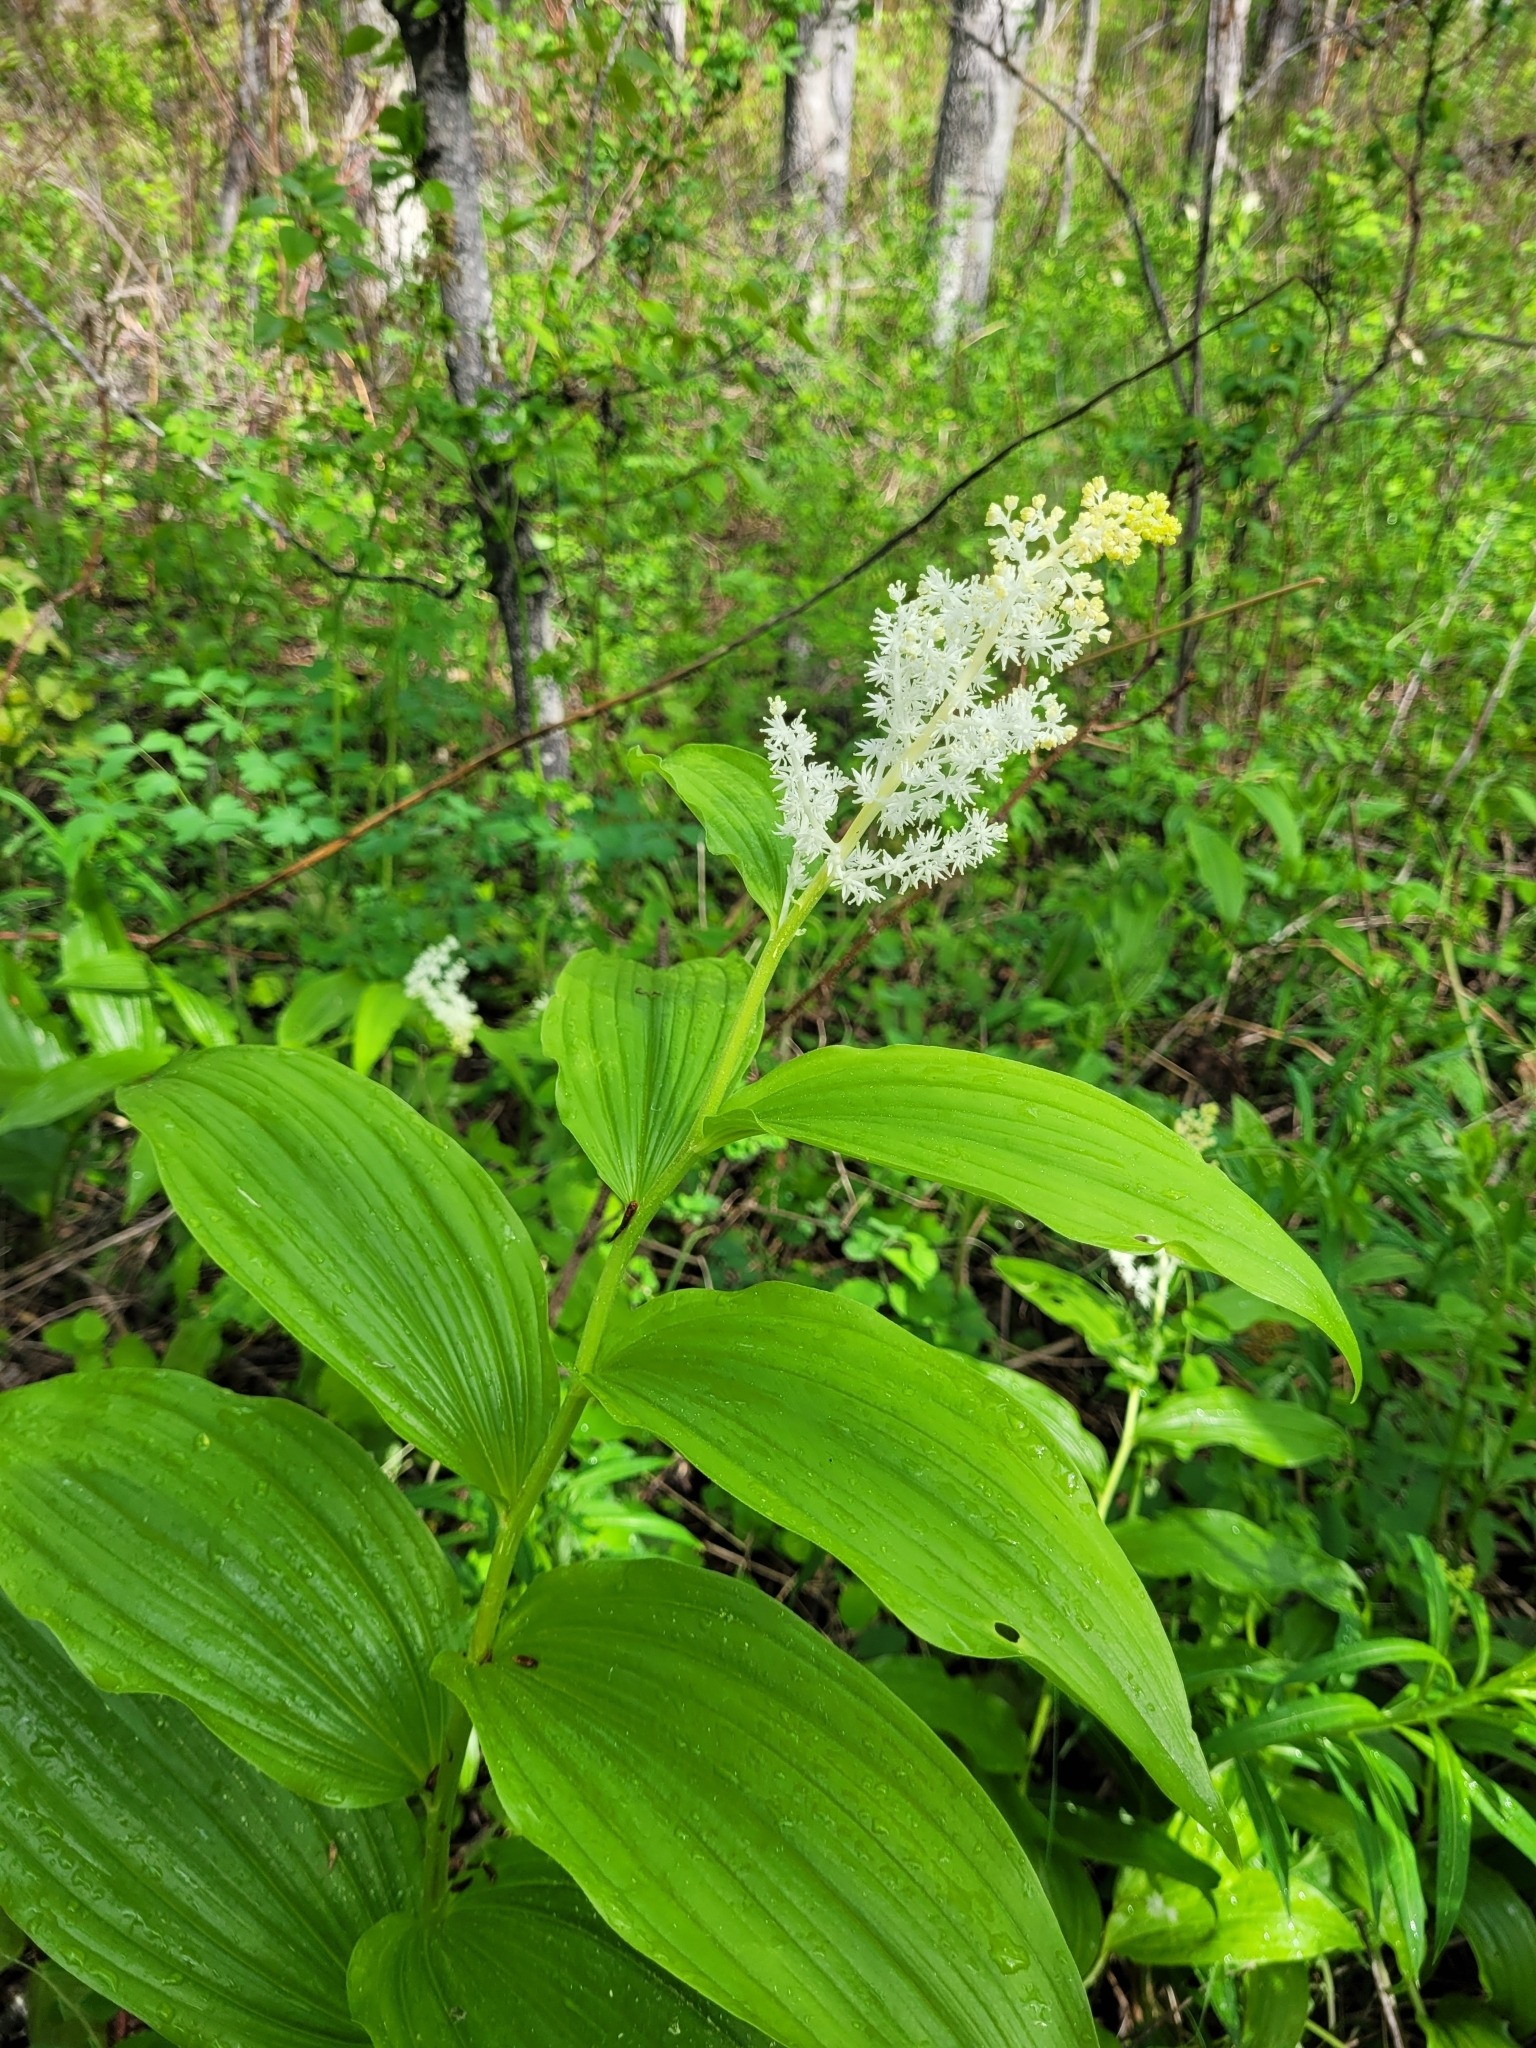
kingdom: Plantae
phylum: Tracheophyta
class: Liliopsida
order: Asparagales
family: Asparagaceae
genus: Maianthemum
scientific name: Maianthemum racemosum
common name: False spikenard
